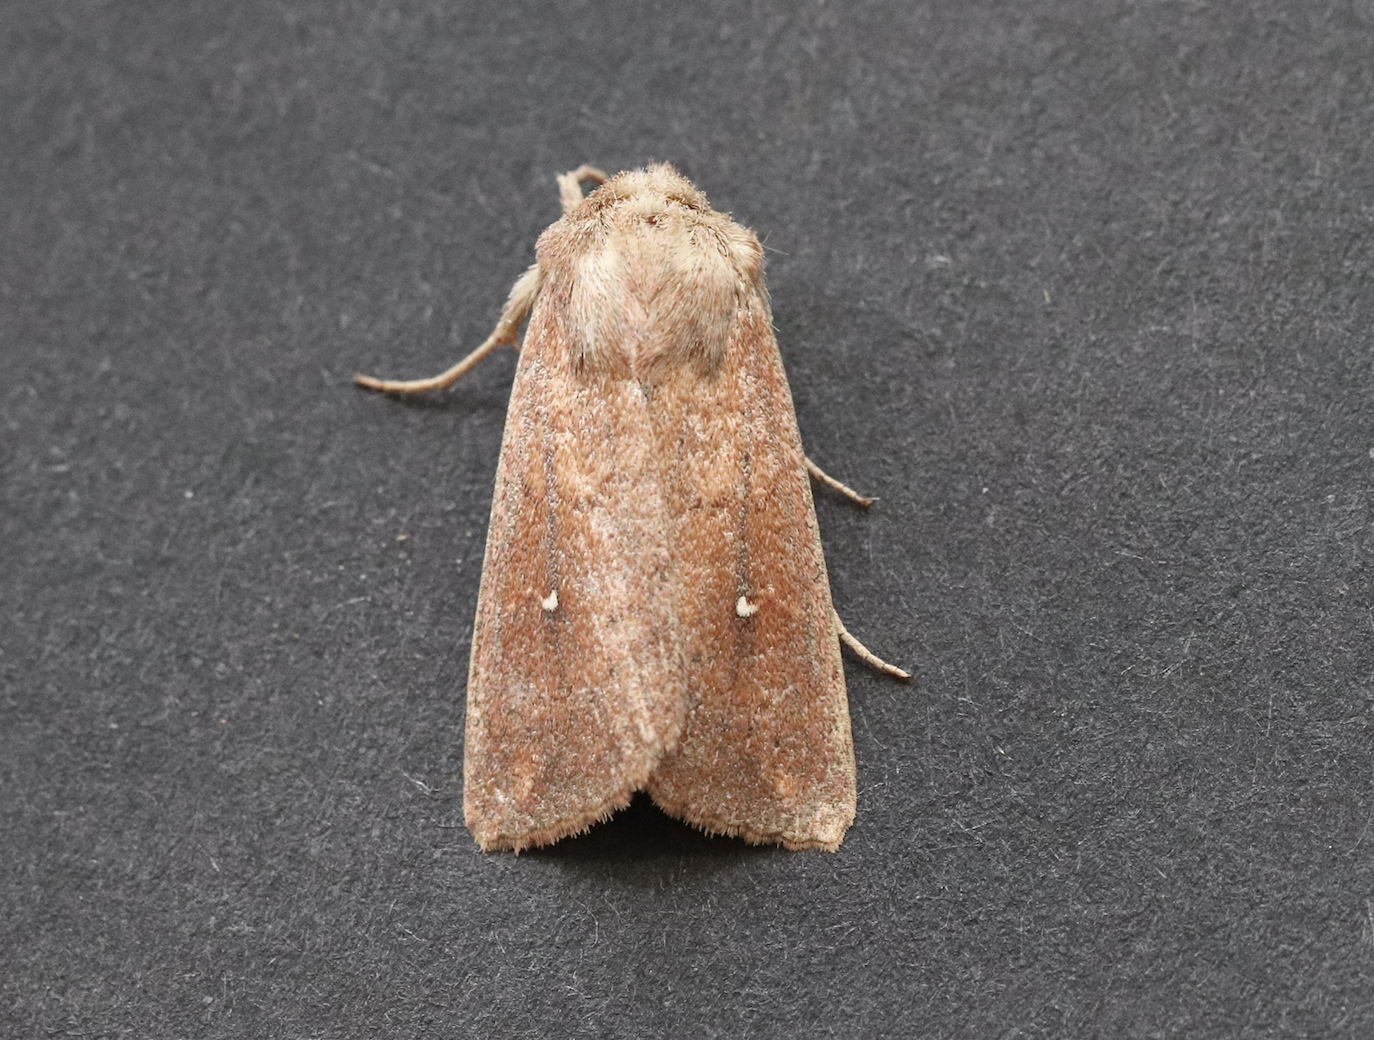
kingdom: Animalia
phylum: Arthropoda
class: Insecta
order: Lepidoptera
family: Noctuidae
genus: Mythimna
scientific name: Mythimna albipuncta
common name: White-point
